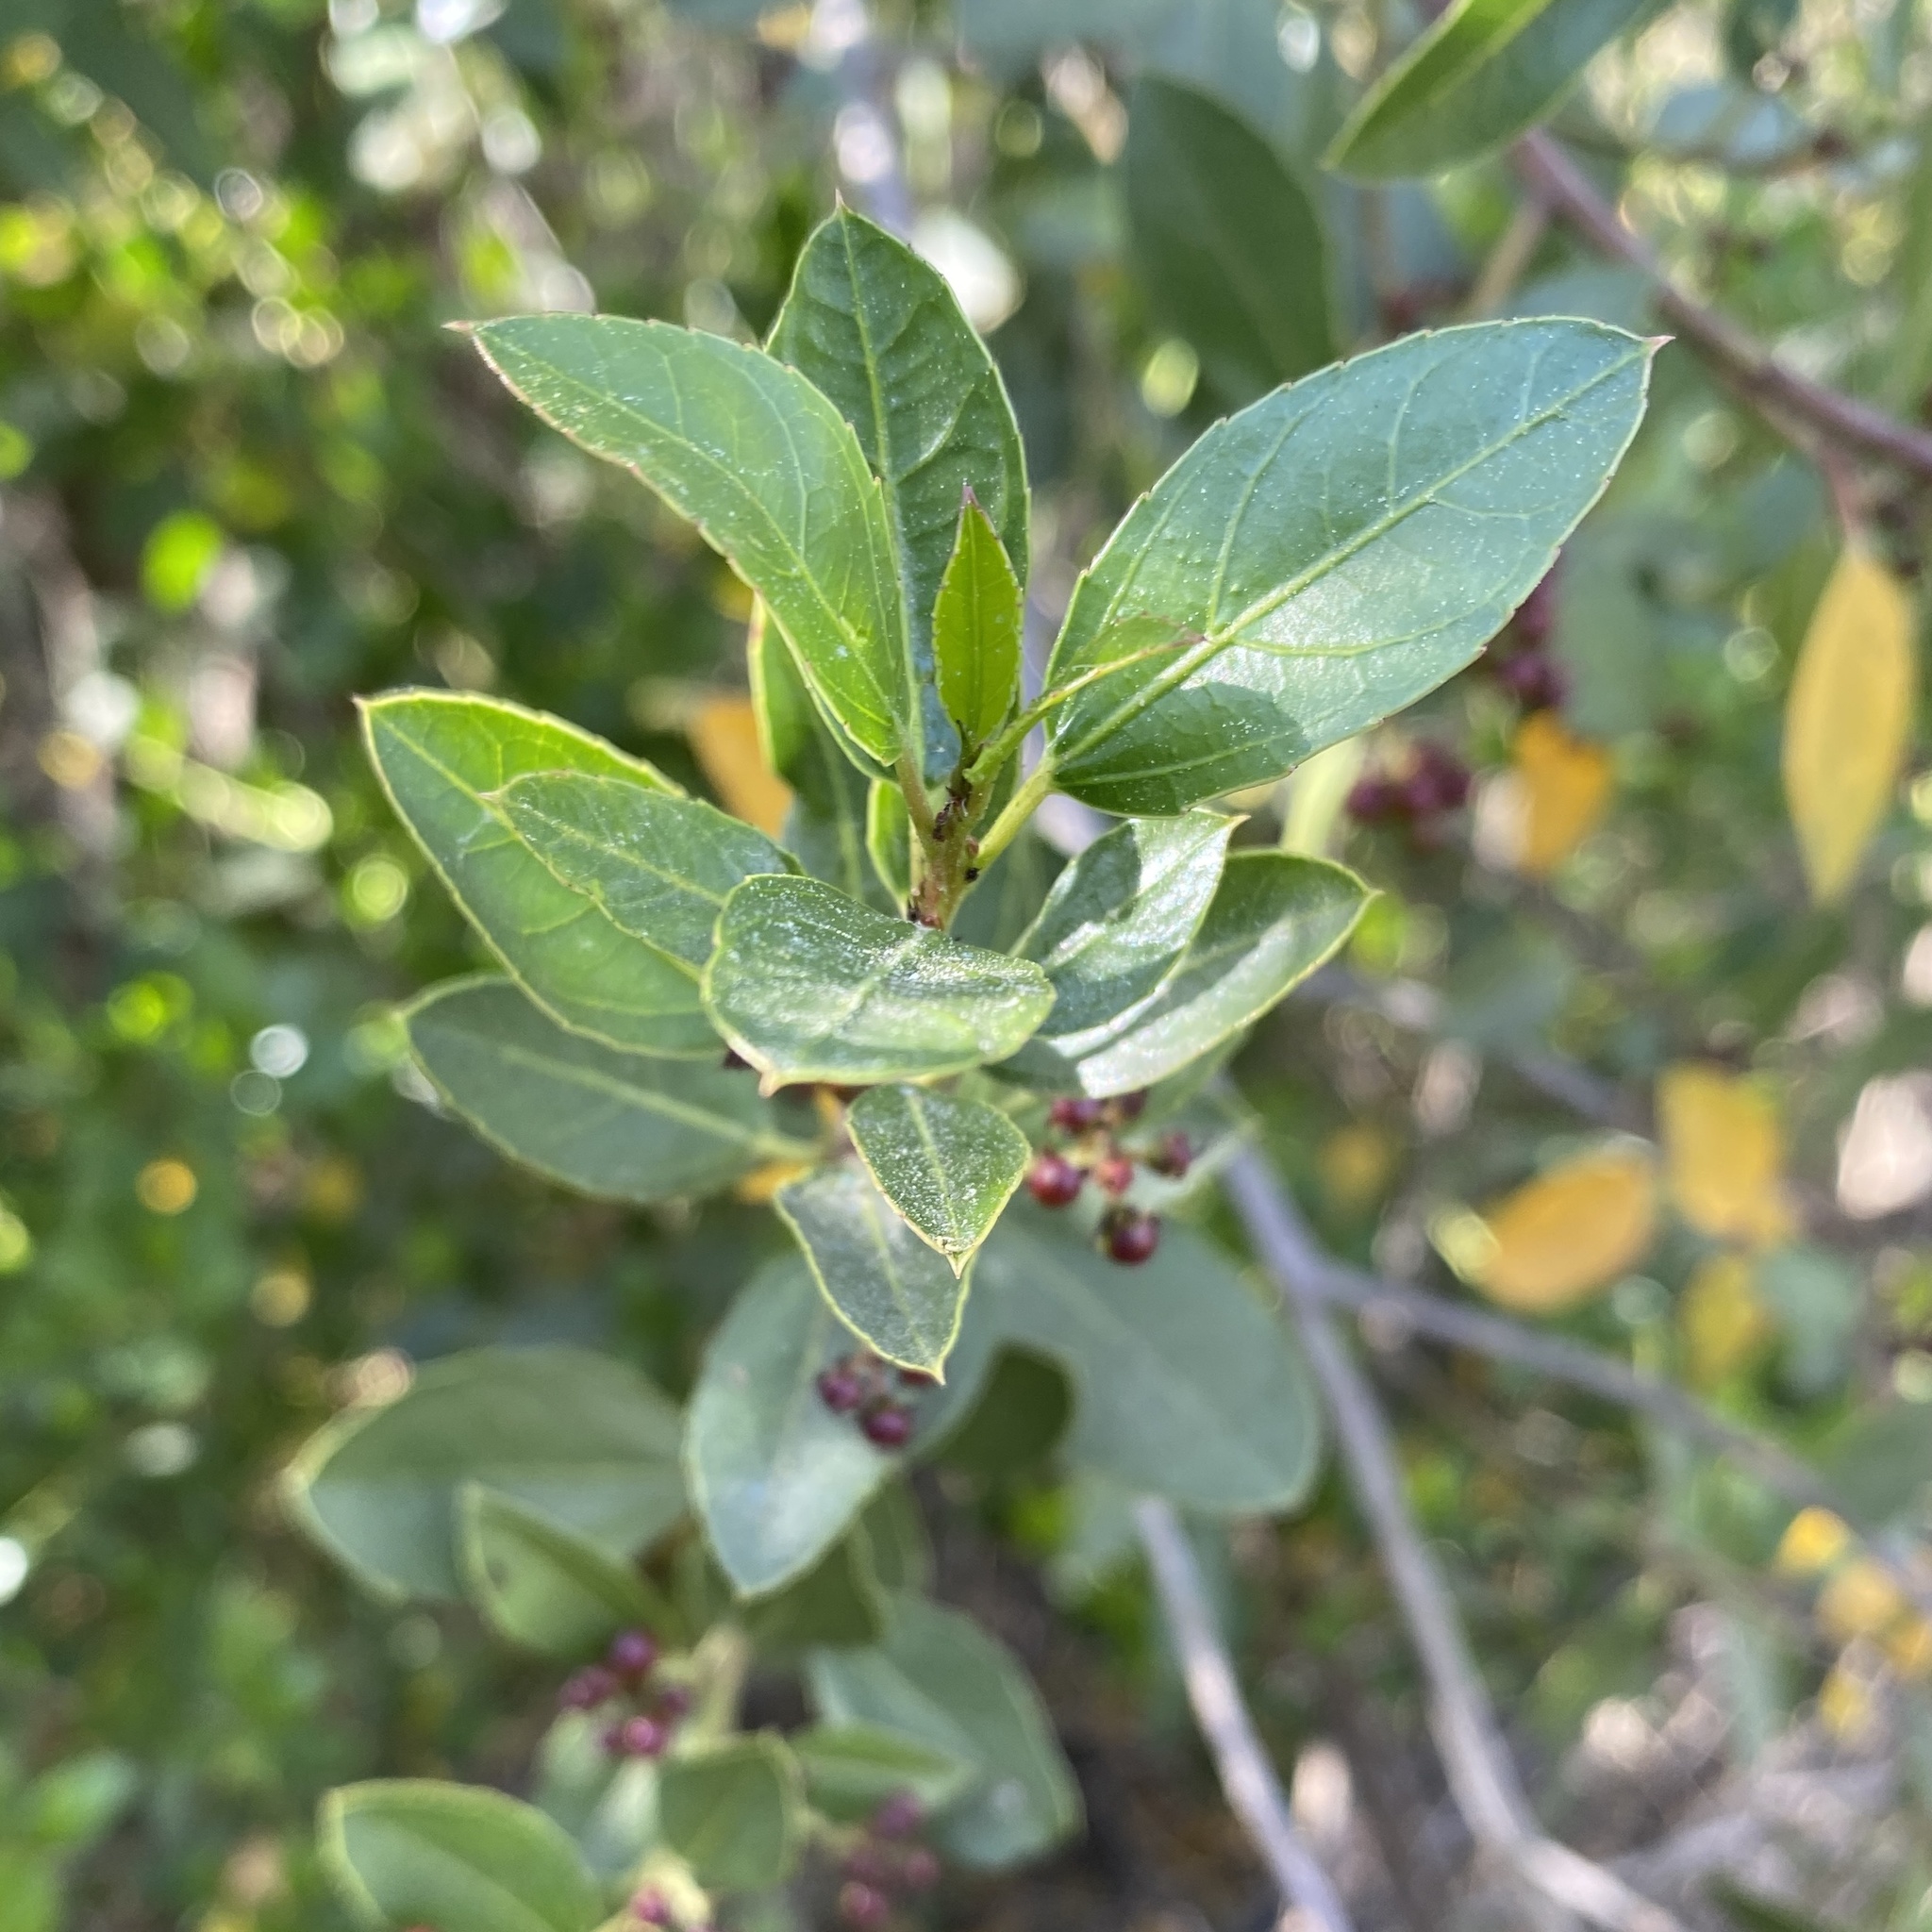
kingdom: Plantae
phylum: Tracheophyta
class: Magnoliopsida
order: Rosales
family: Rhamnaceae
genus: Rhamnus
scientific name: Rhamnus alaternus
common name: Mediterranean buckthorn
